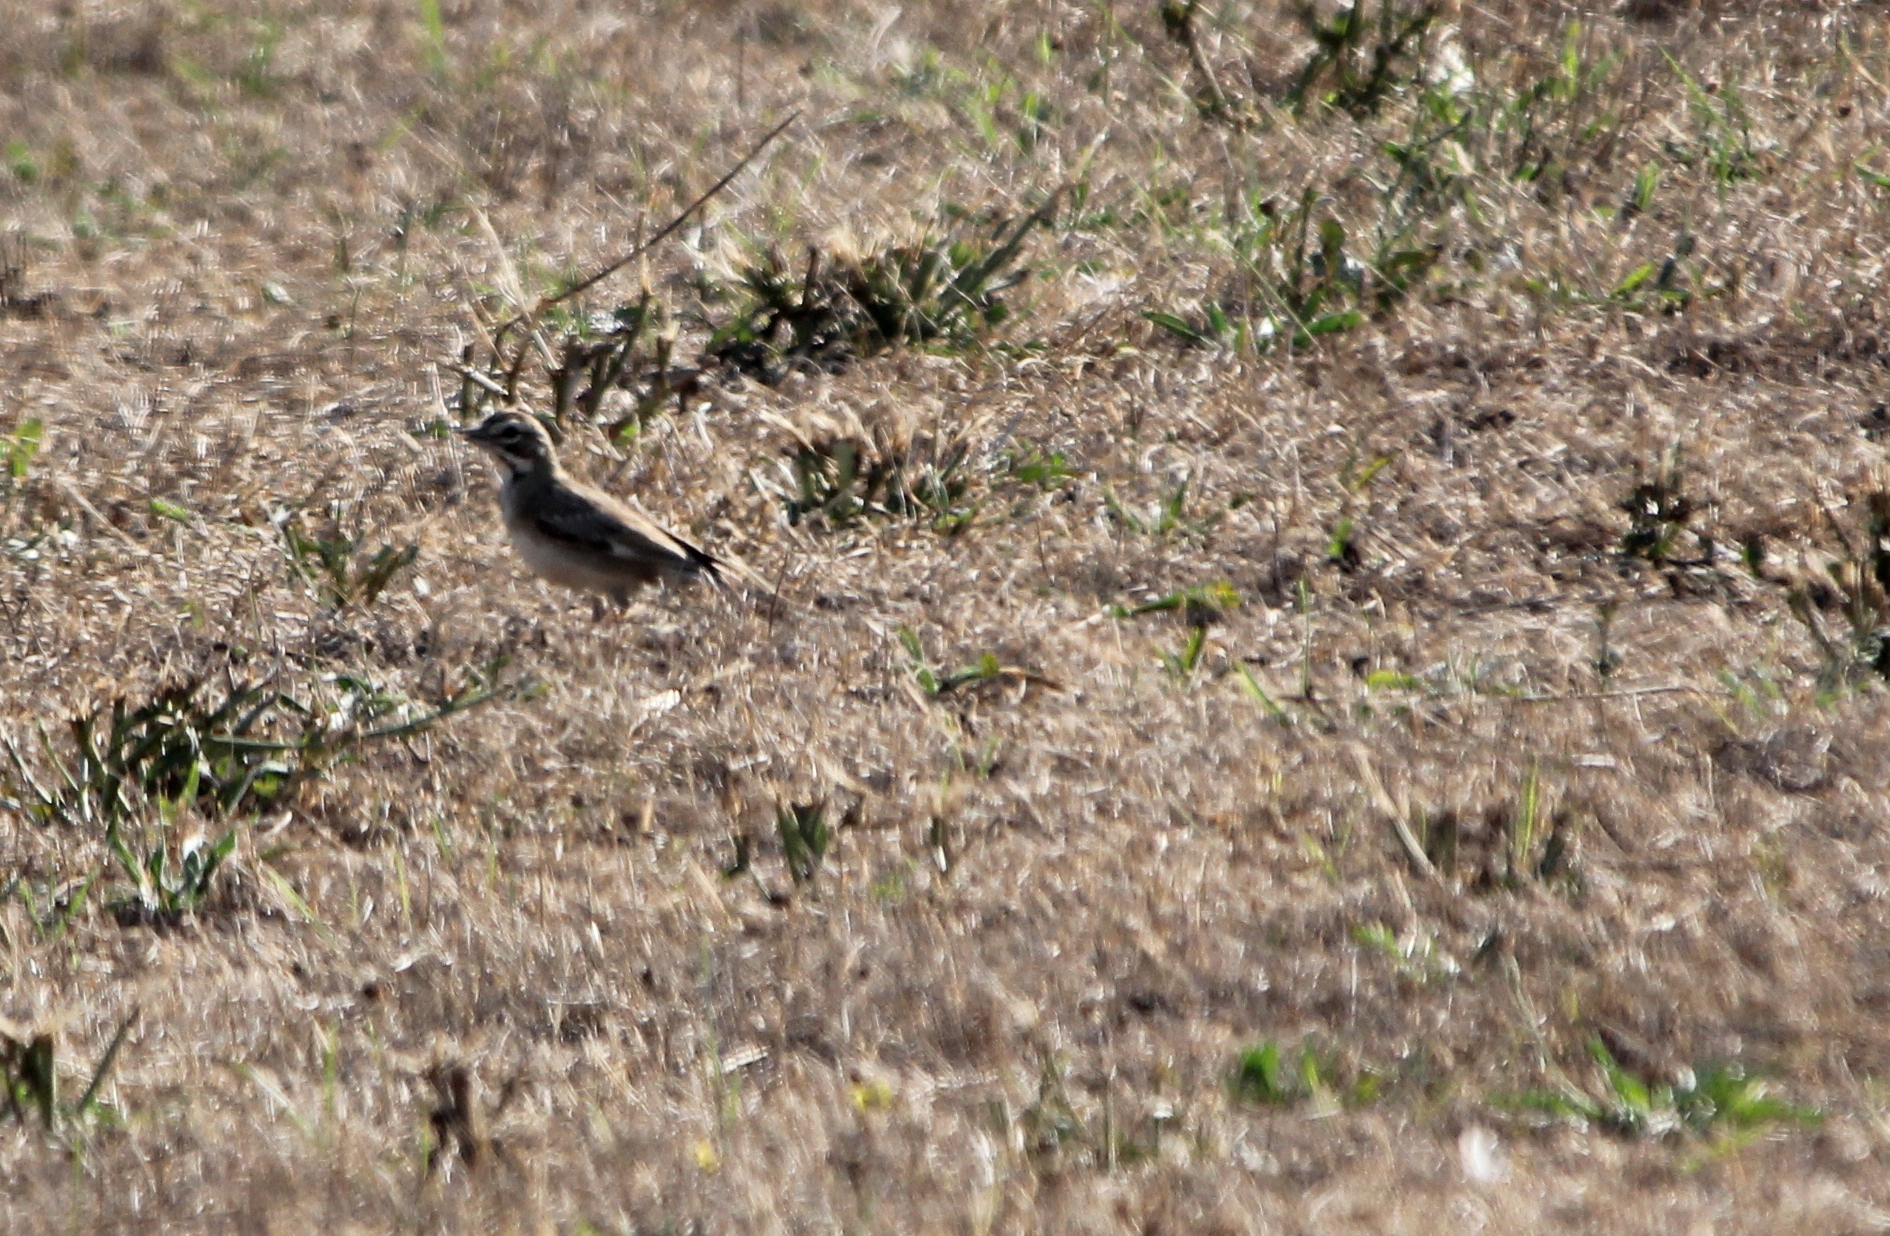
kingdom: Animalia
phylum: Chordata
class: Aves
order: Passeriformes
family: Passerellidae
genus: Chondestes
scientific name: Chondestes grammacus
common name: Lark sparrow
